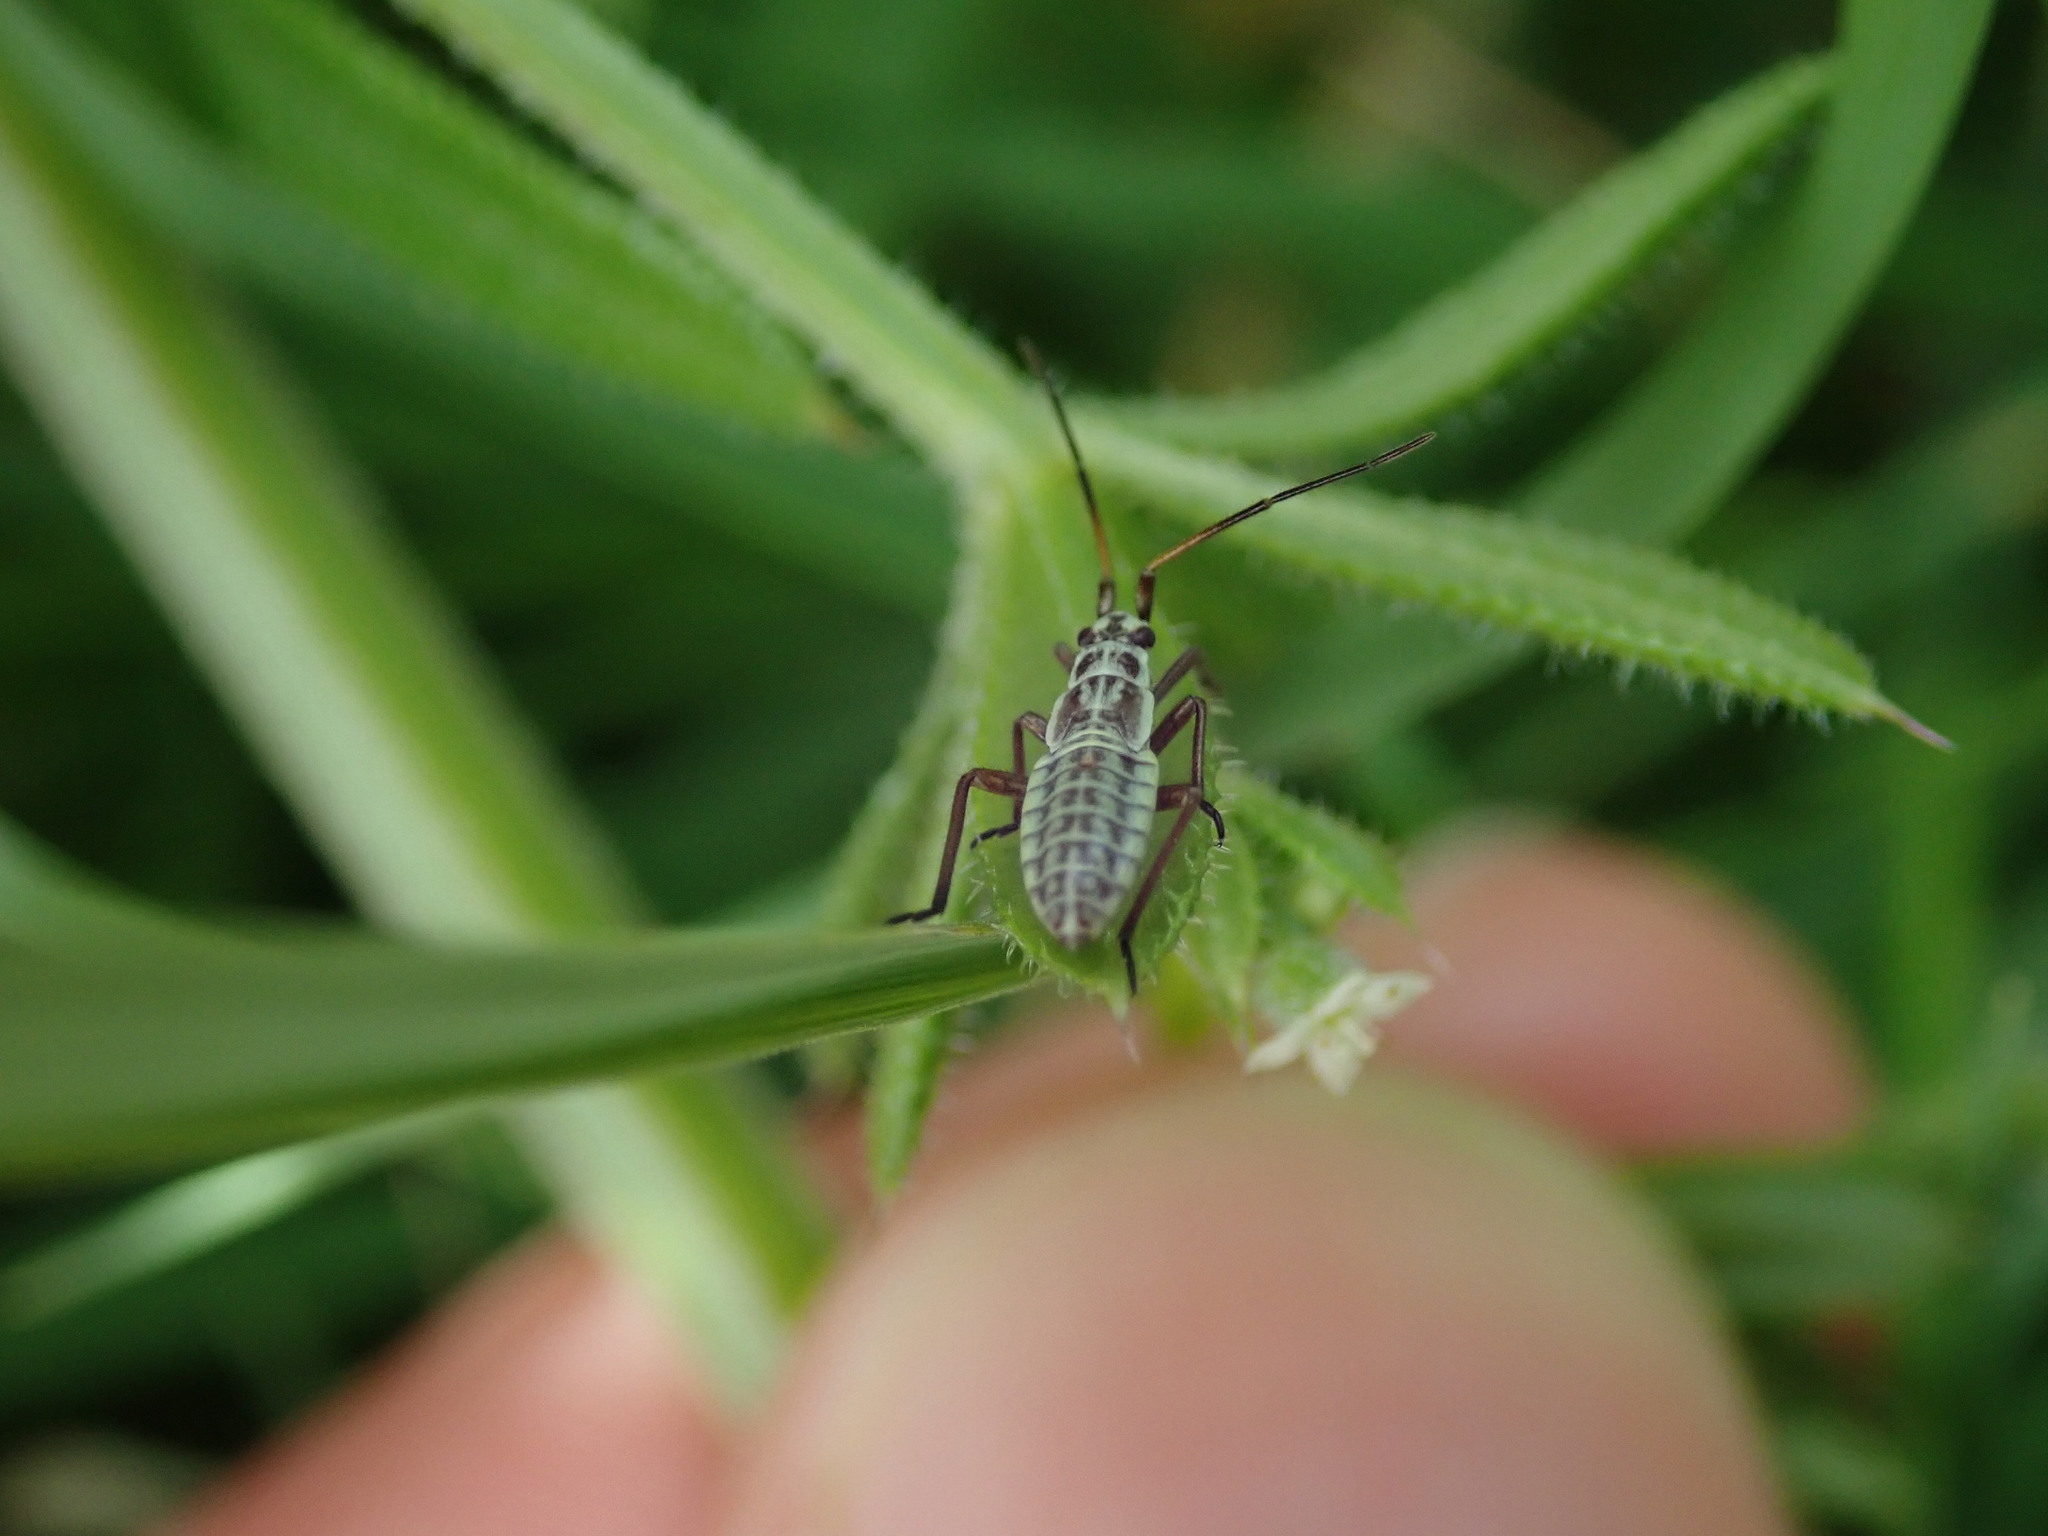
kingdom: Animalia
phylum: Arthropoda
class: Insecta
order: Hemiptera
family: Miridae
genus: Leptopterna
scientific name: Leptopterna dolabrata
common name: Meadow plant bug
